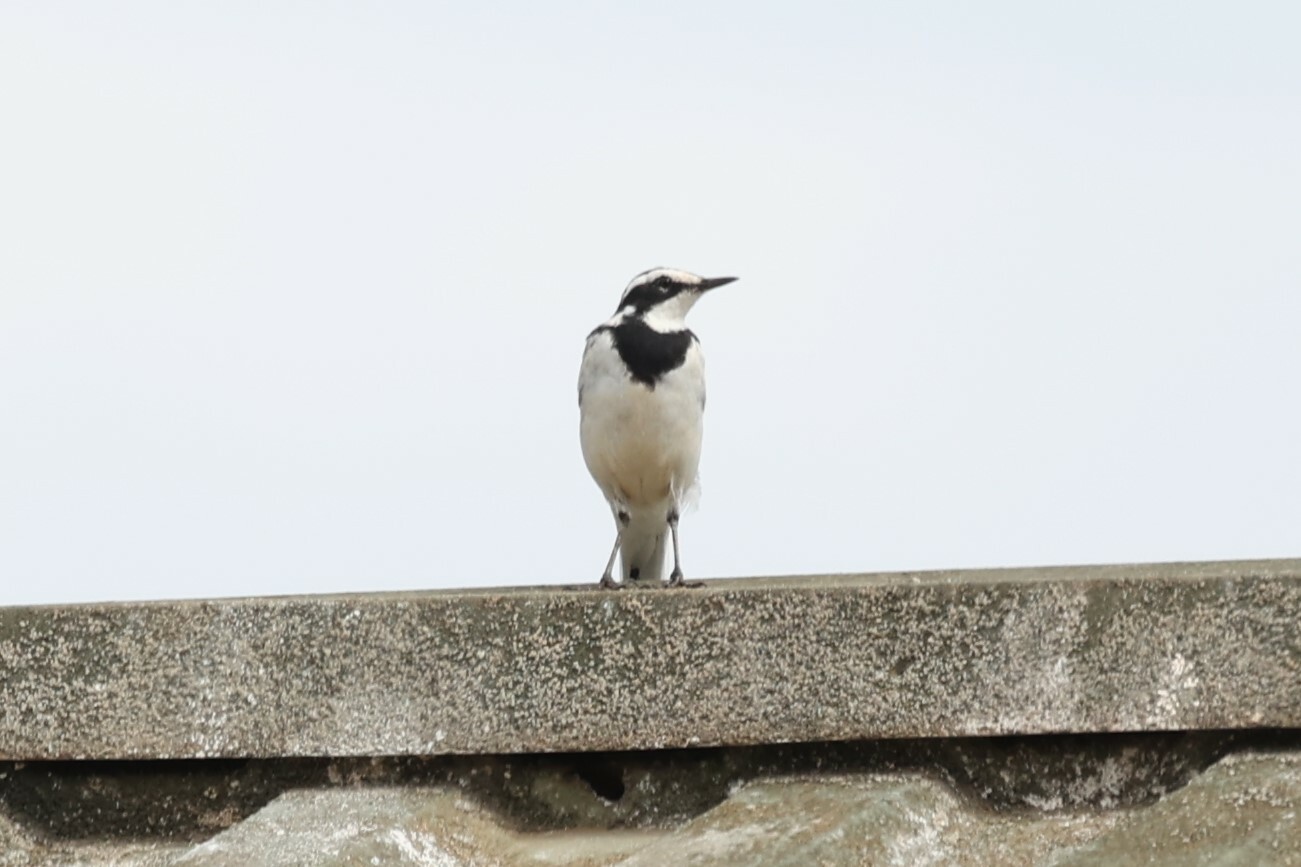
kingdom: Animalia
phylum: Chordata
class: Aves
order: Passeriformes
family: Motacillidae
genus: Motacilla
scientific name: Motacilla aguimp
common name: African pied wagtail
